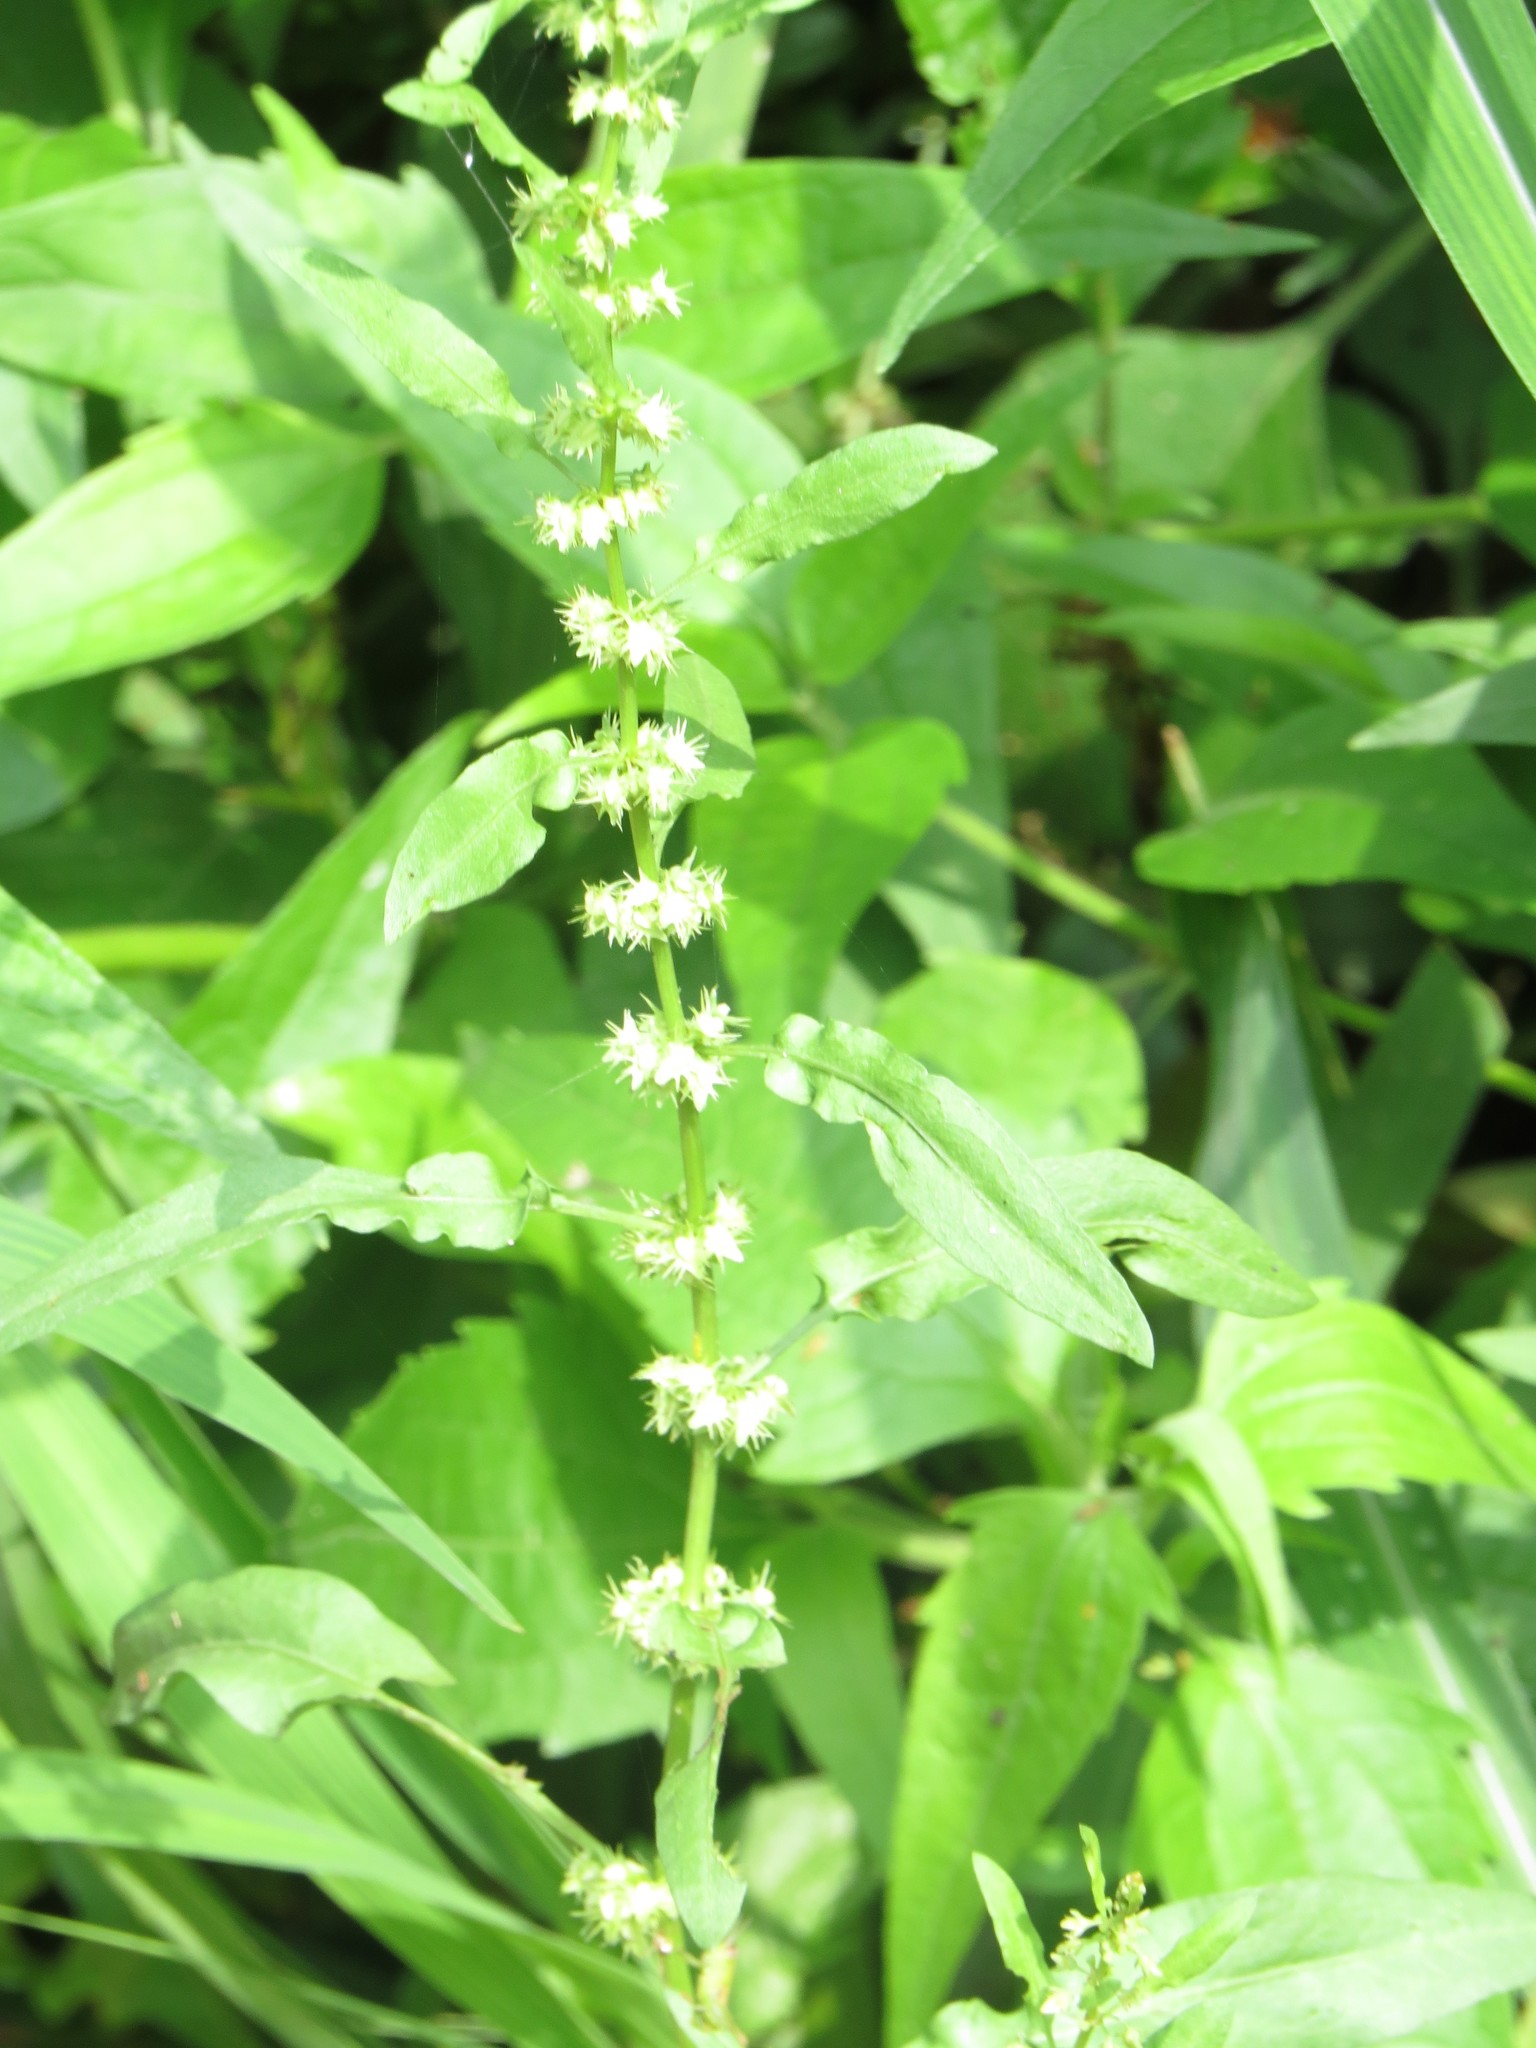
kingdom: Plantae
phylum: Tracheophyta
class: Magnoliopsida
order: Caryophyllales
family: Polygonaceae
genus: Rumex
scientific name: Rumex pulcher
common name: Fiddle dock
